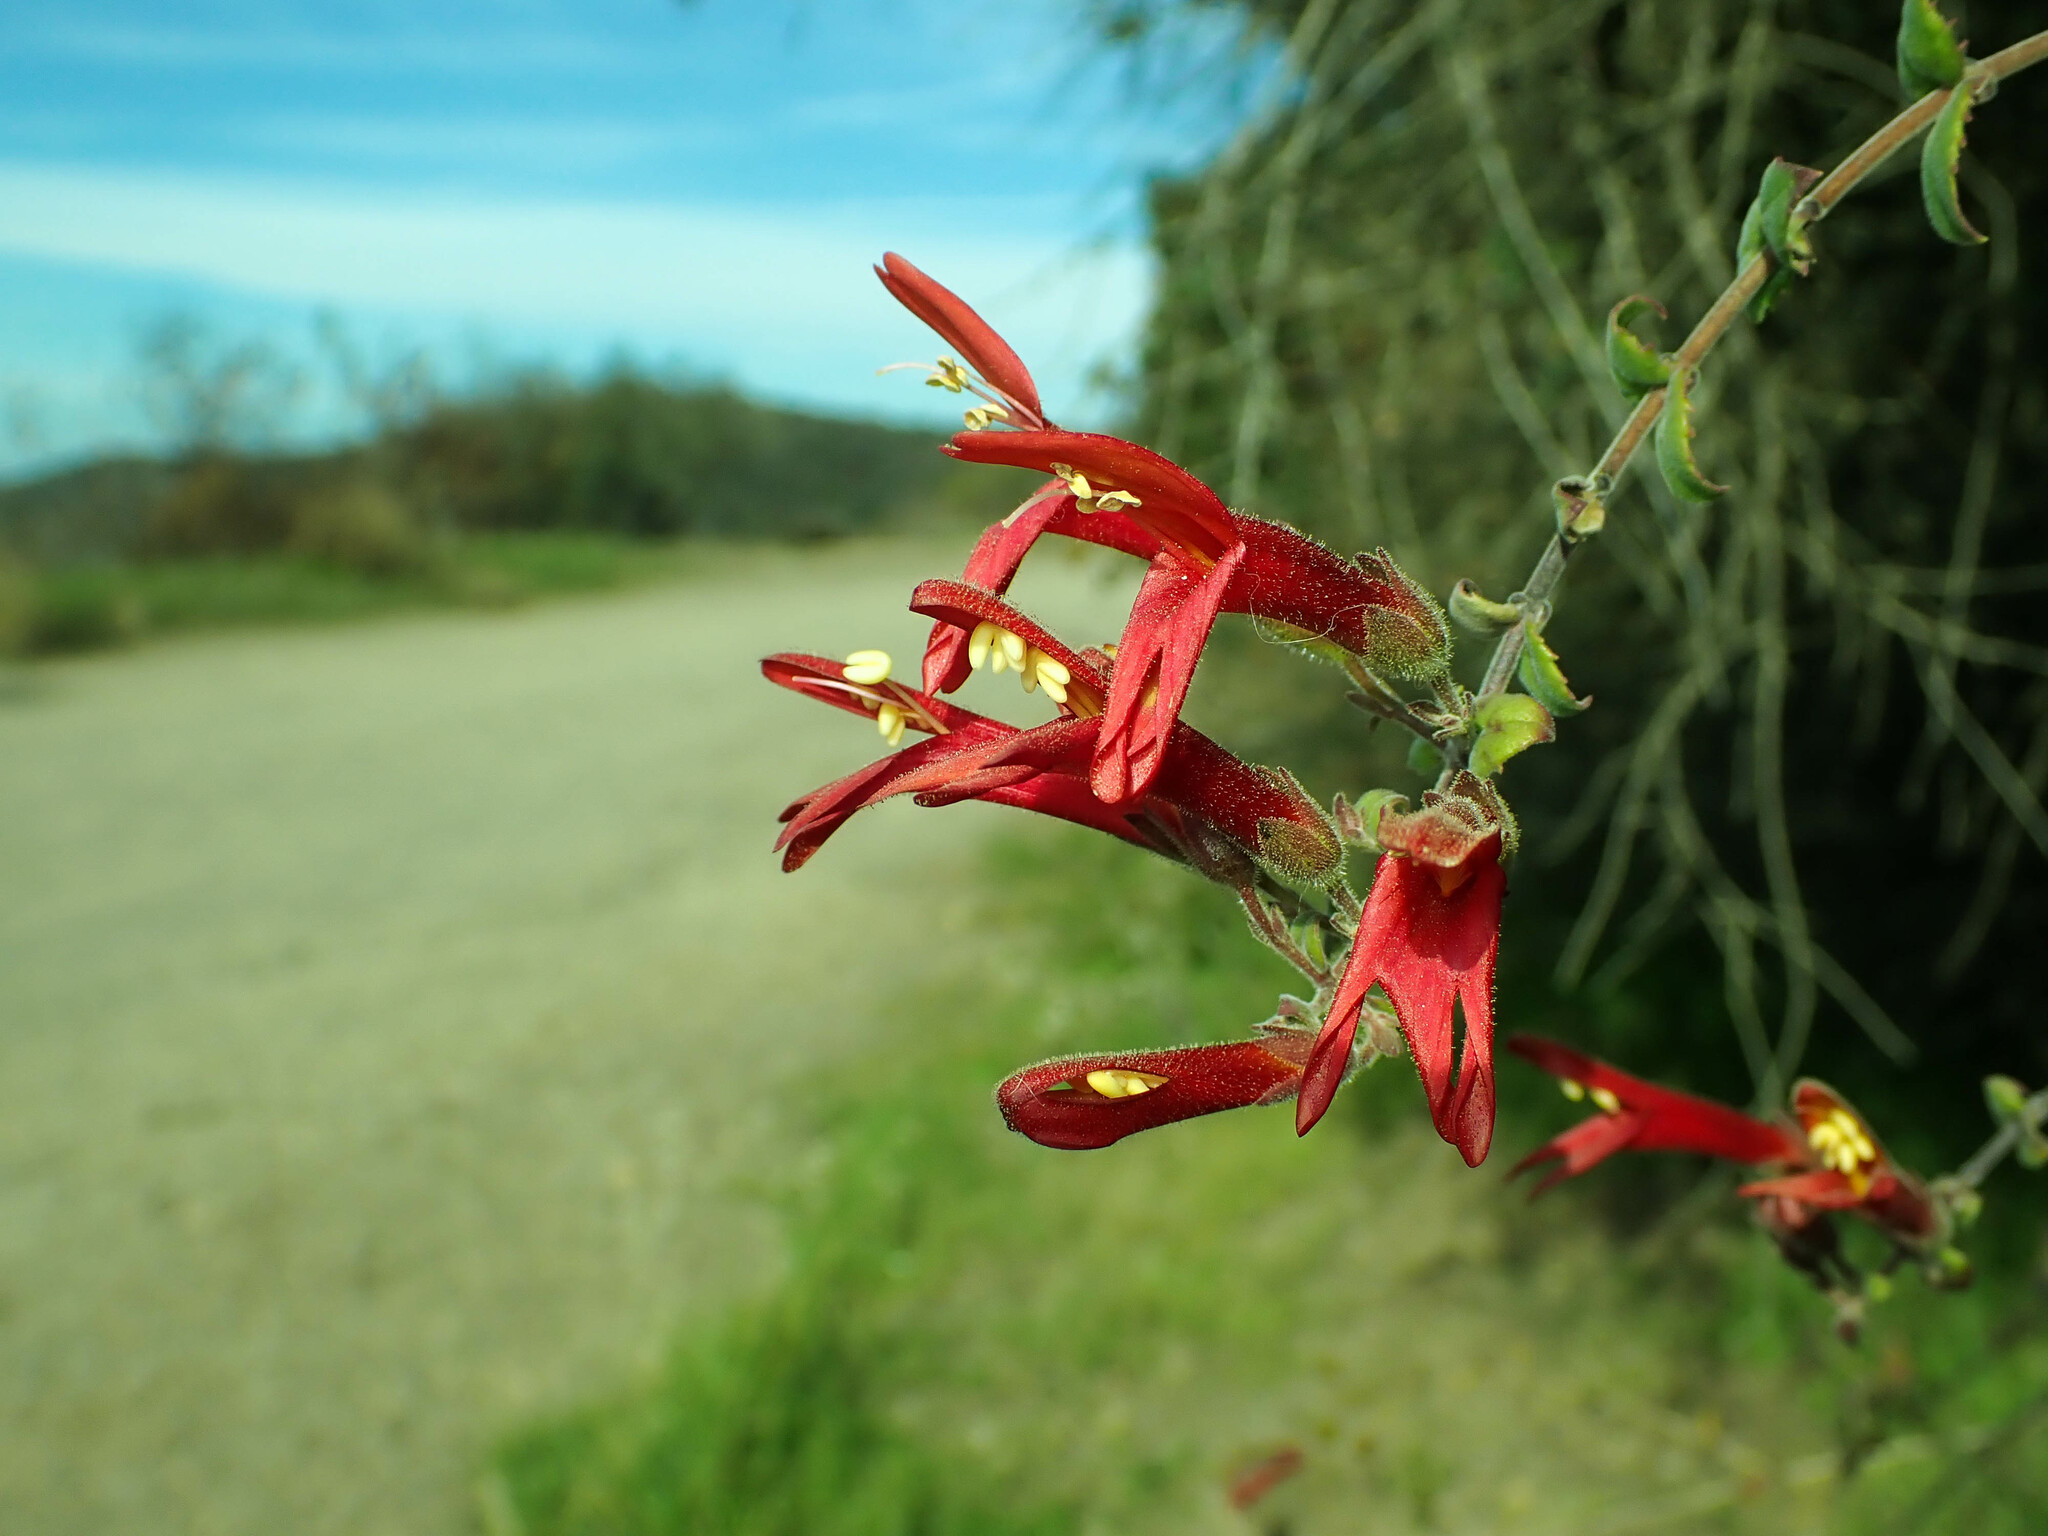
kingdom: Plantae
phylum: Tracheophyta
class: Magnoliopsida
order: Lamiales
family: Plantaginaceae
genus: Keckiella
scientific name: Keckiella cordifolia
